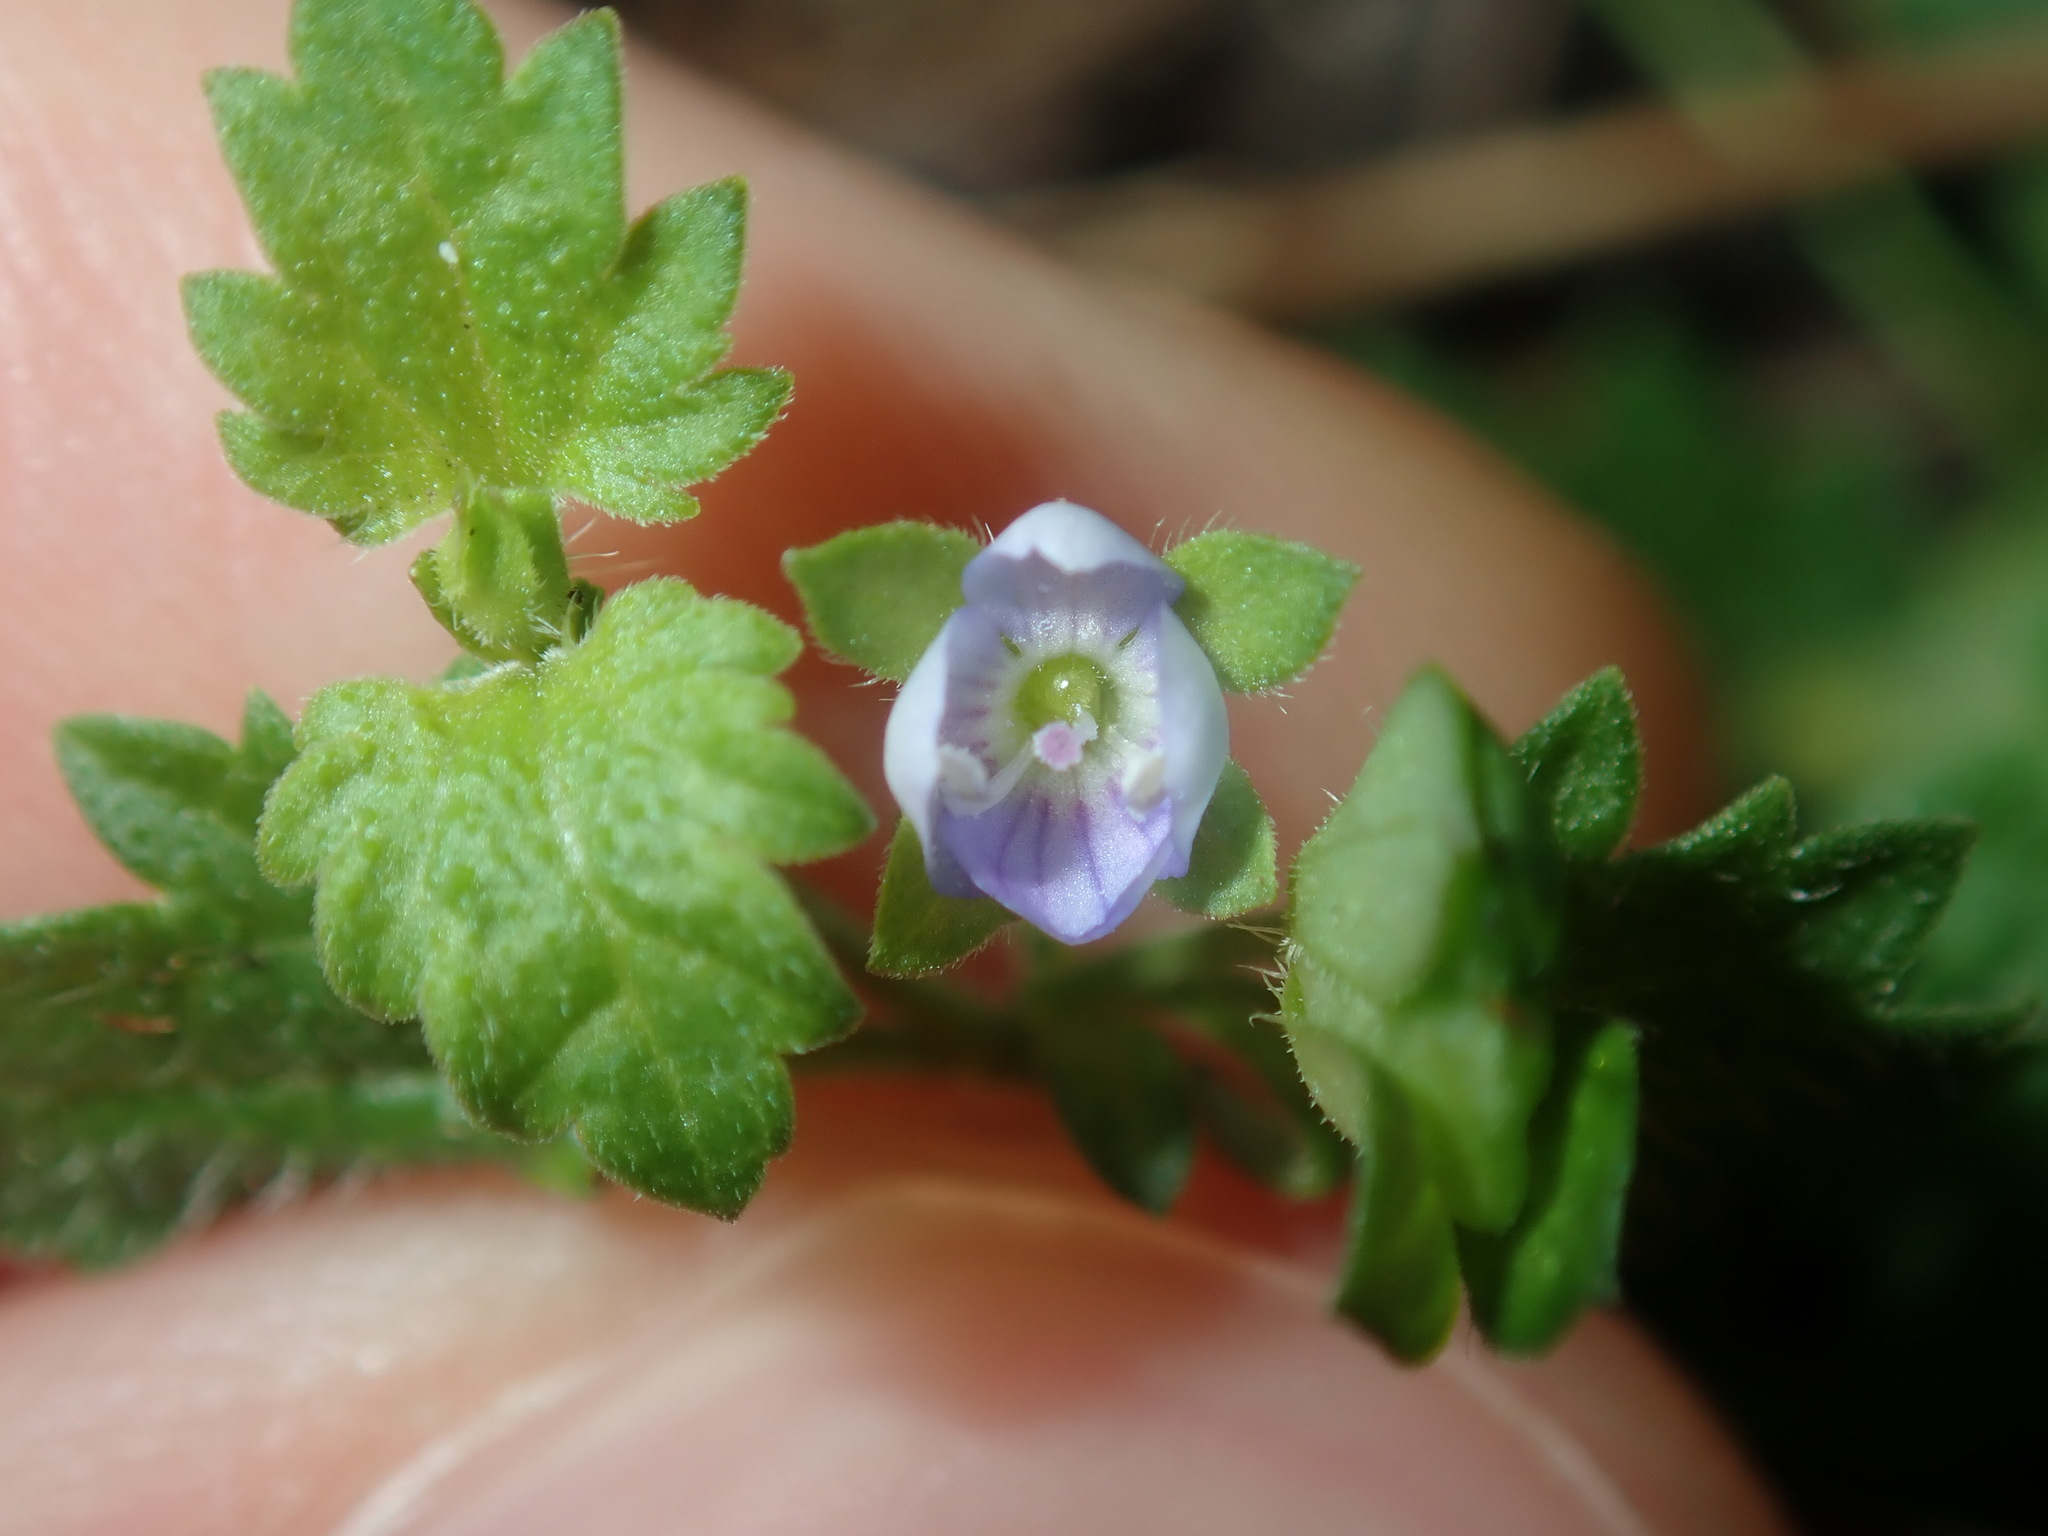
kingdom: Plantae
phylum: Tracheophyta
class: Magnoliopsida
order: Lamiales
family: Plantaginaceae
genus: Veronica
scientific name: Veronica plebeia
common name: Speedwell
